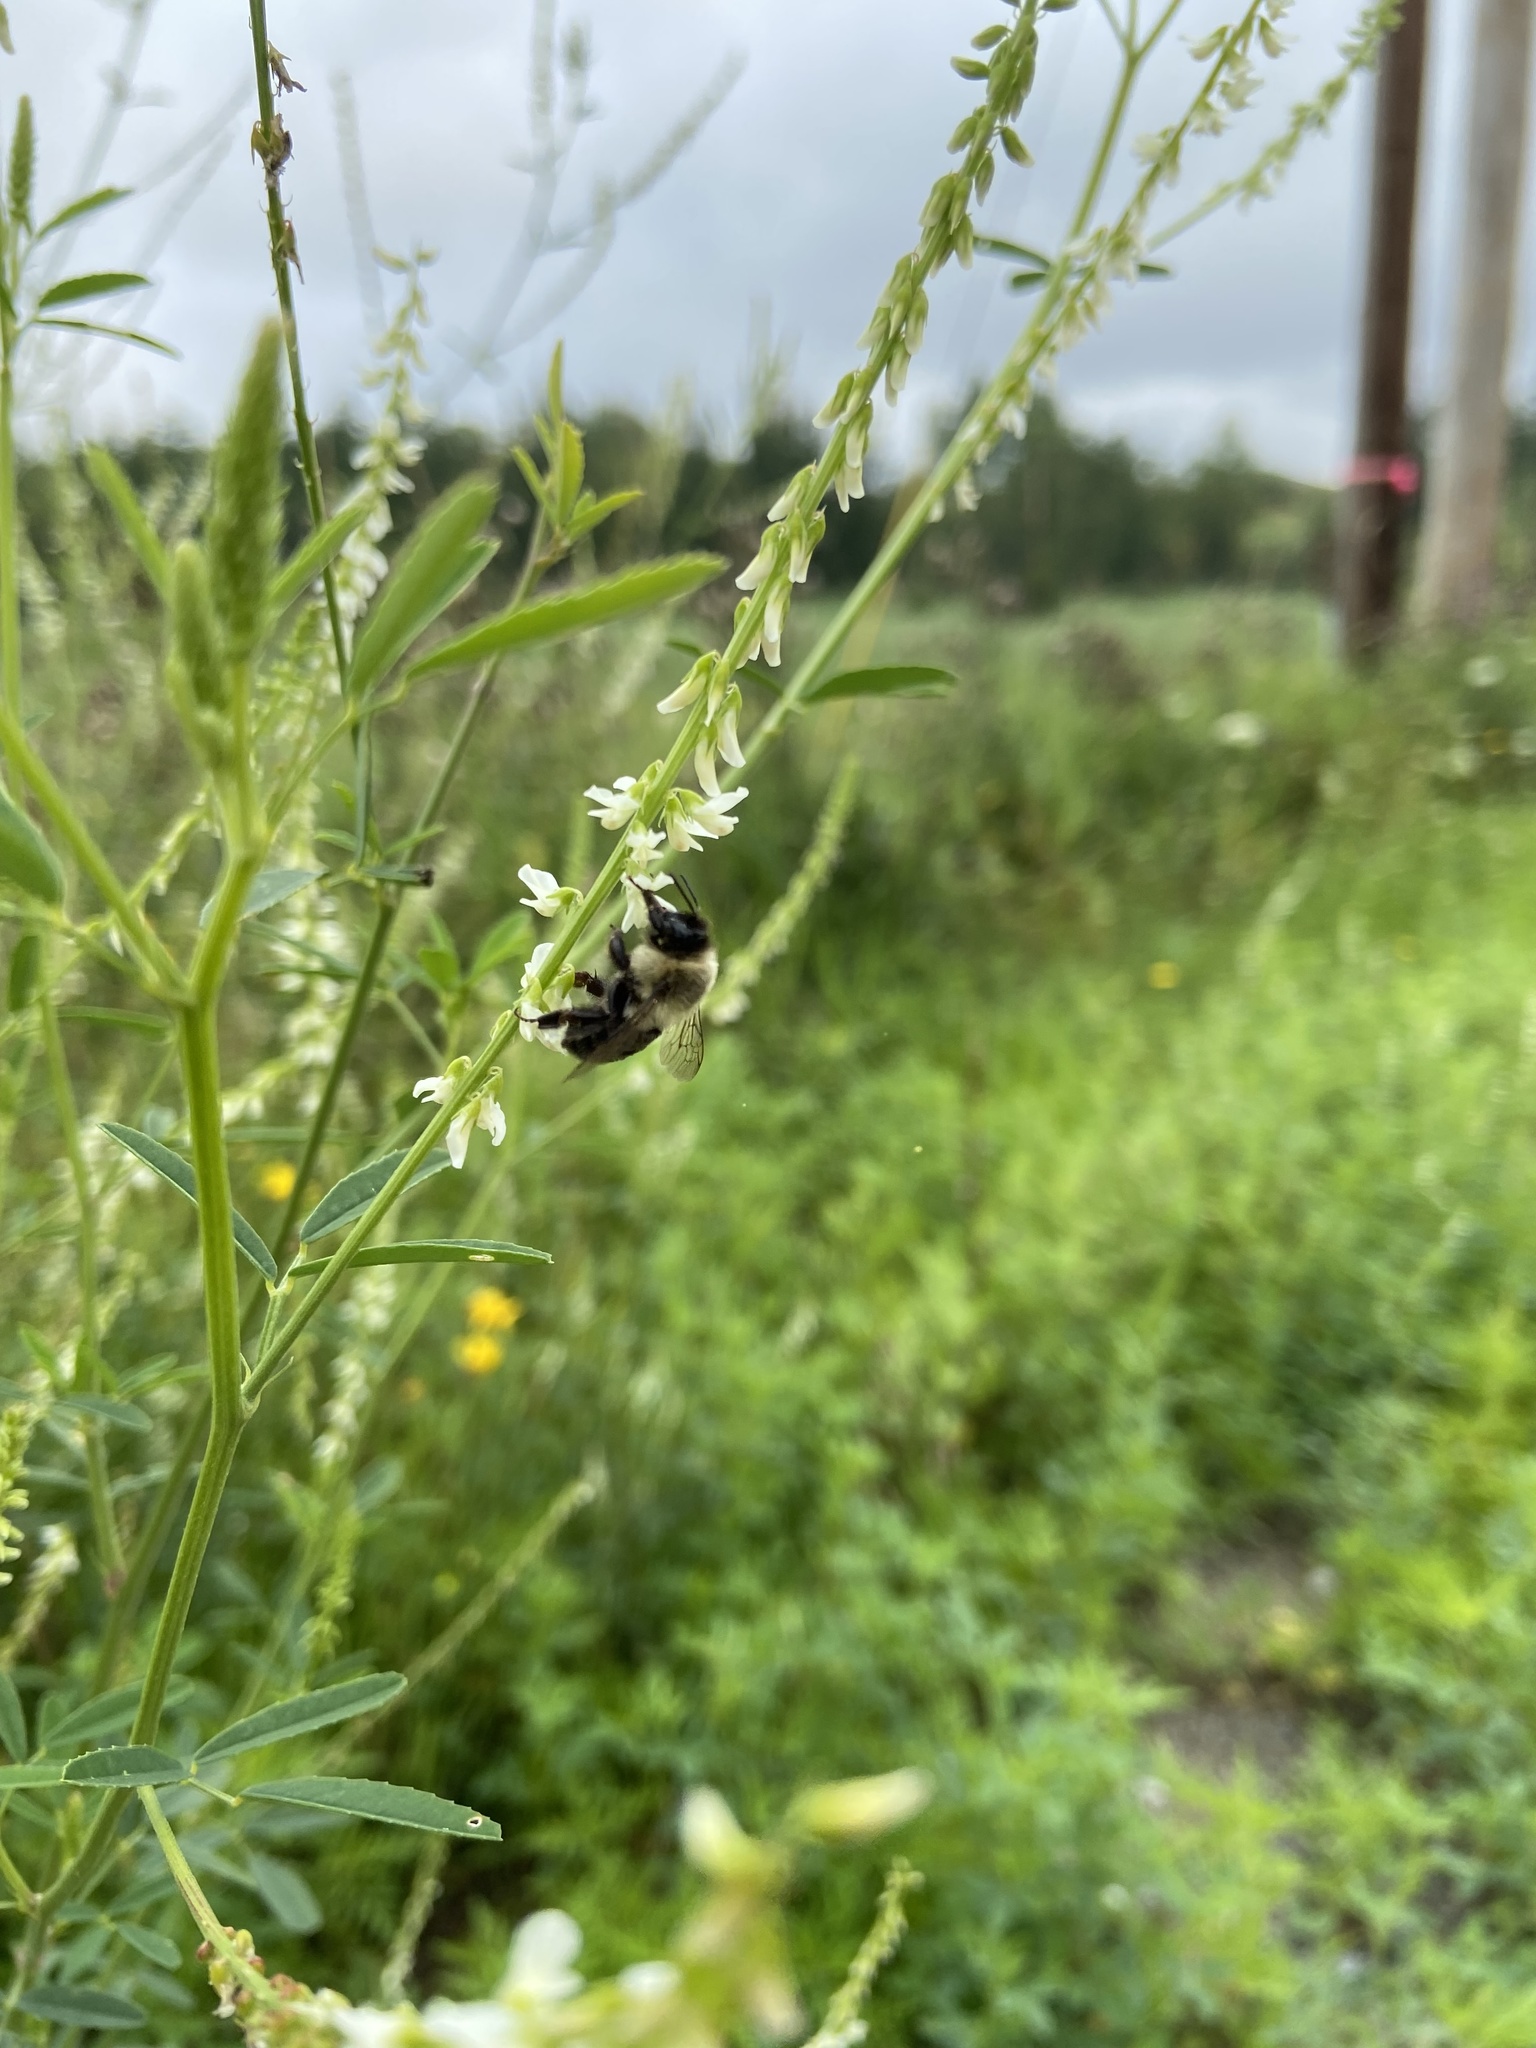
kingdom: Animalia
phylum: Arthropoda
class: Insecta
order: Hymenoptera
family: Apidae
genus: Bombus
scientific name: Bombus impatiens
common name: Common eastern bumble bee
